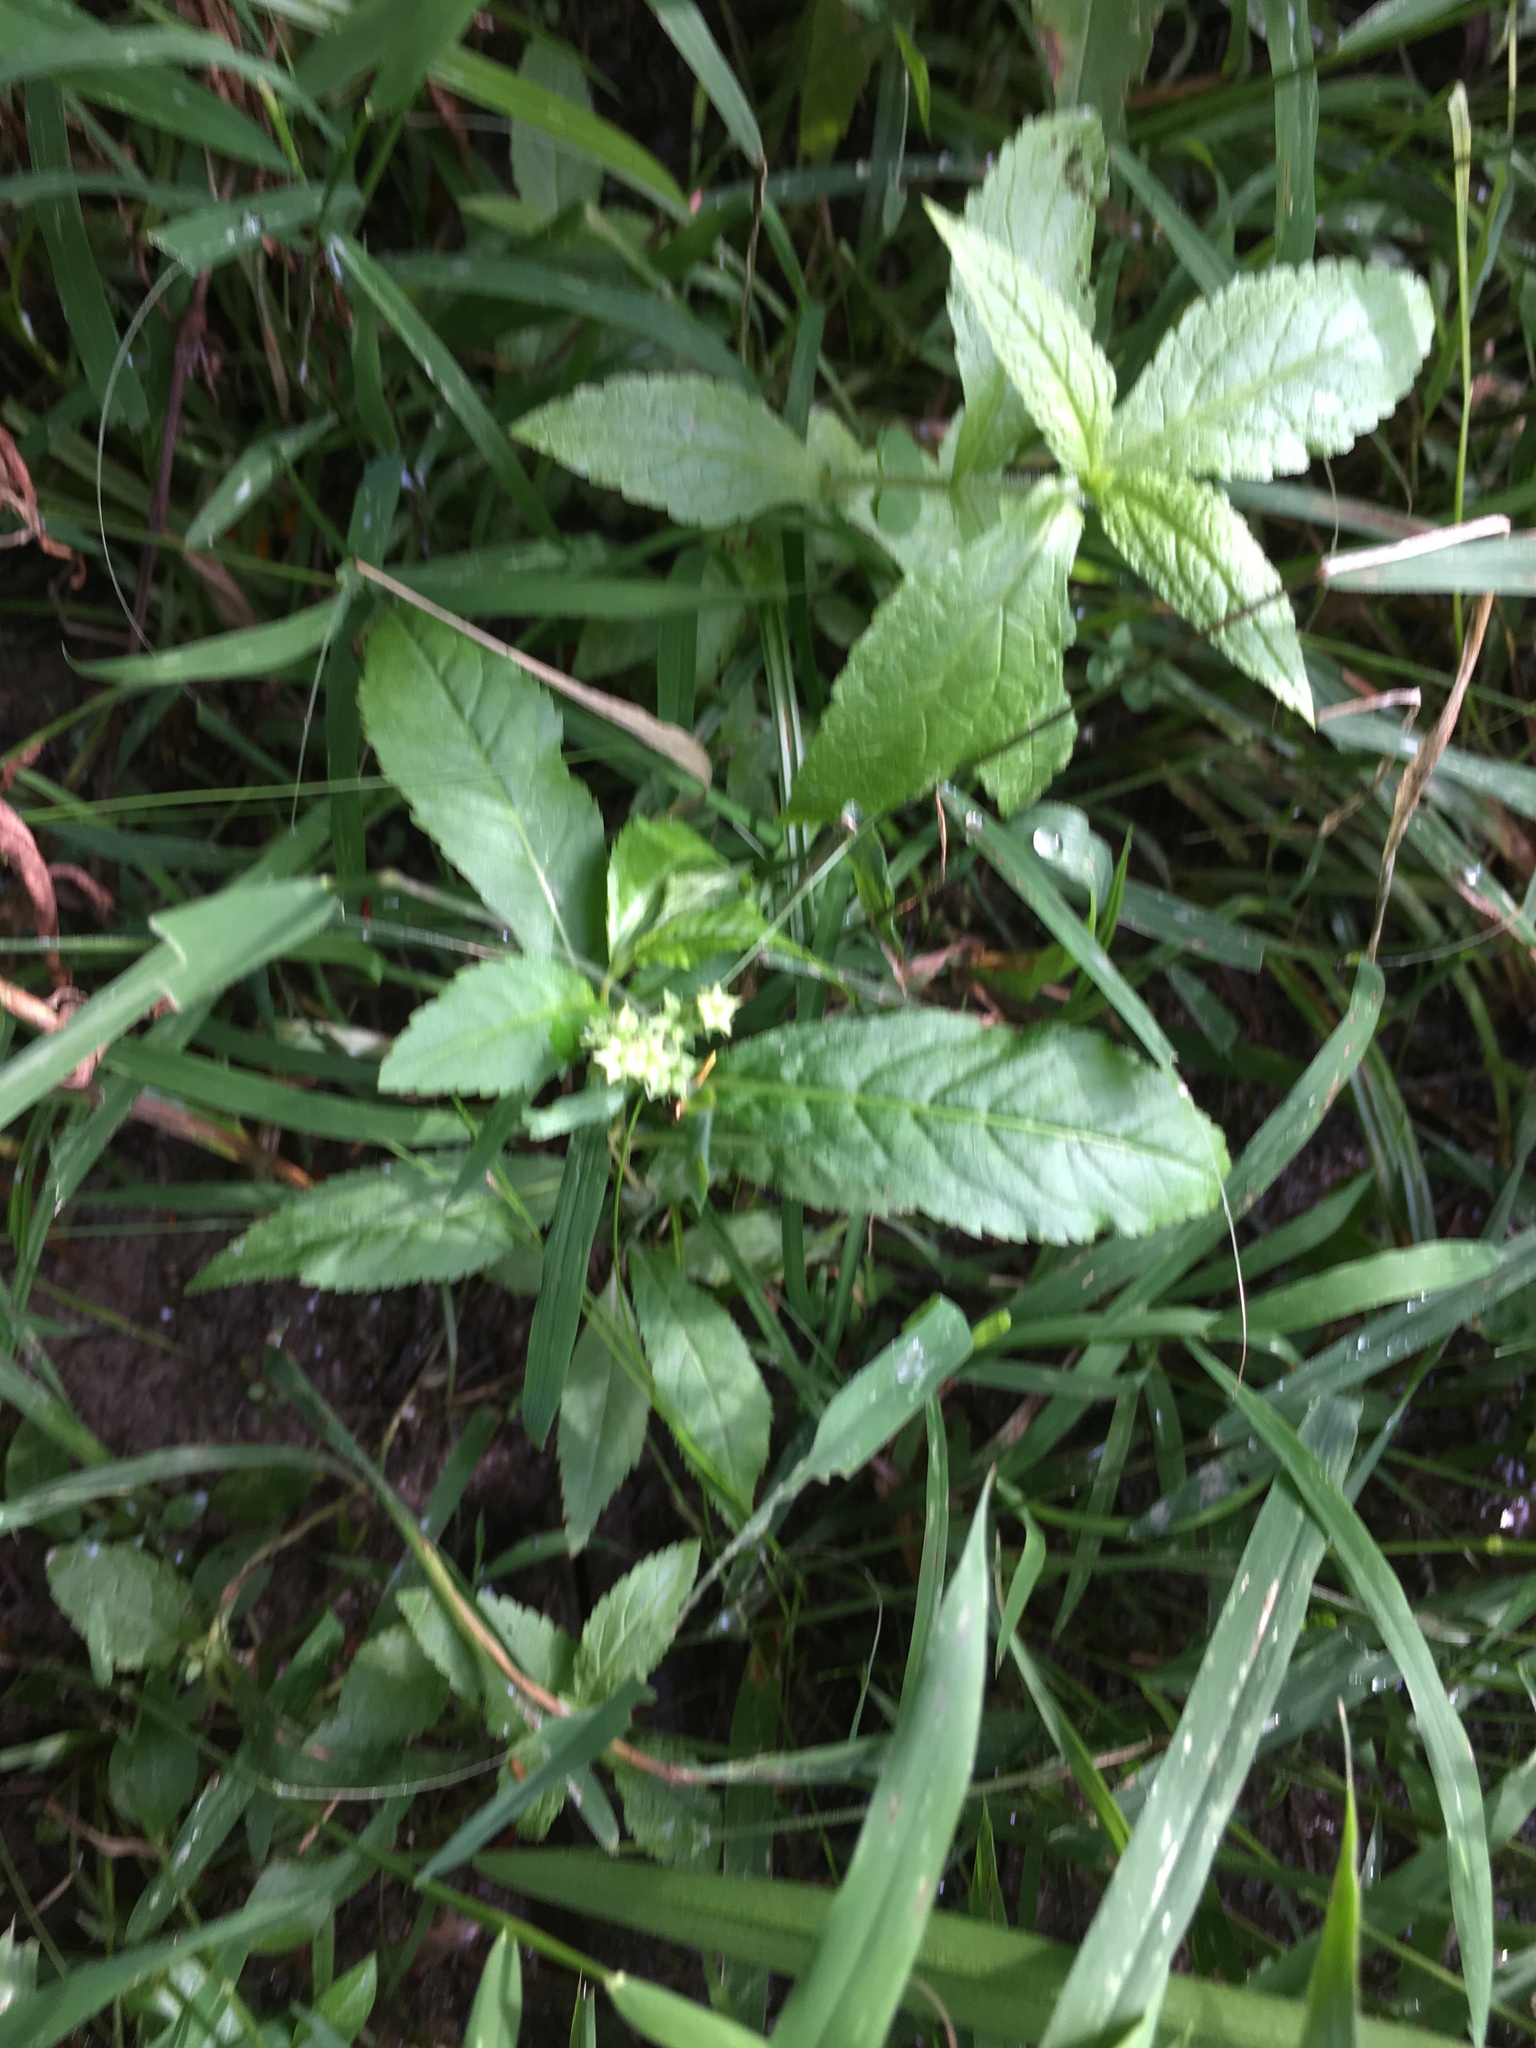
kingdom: Plantae
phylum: Tracheophyta
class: Magnoliopsida
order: Saxifragales
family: Penthoraceae
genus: Penthorum
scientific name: Penthorum sedoides
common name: Ditch stonecrop
